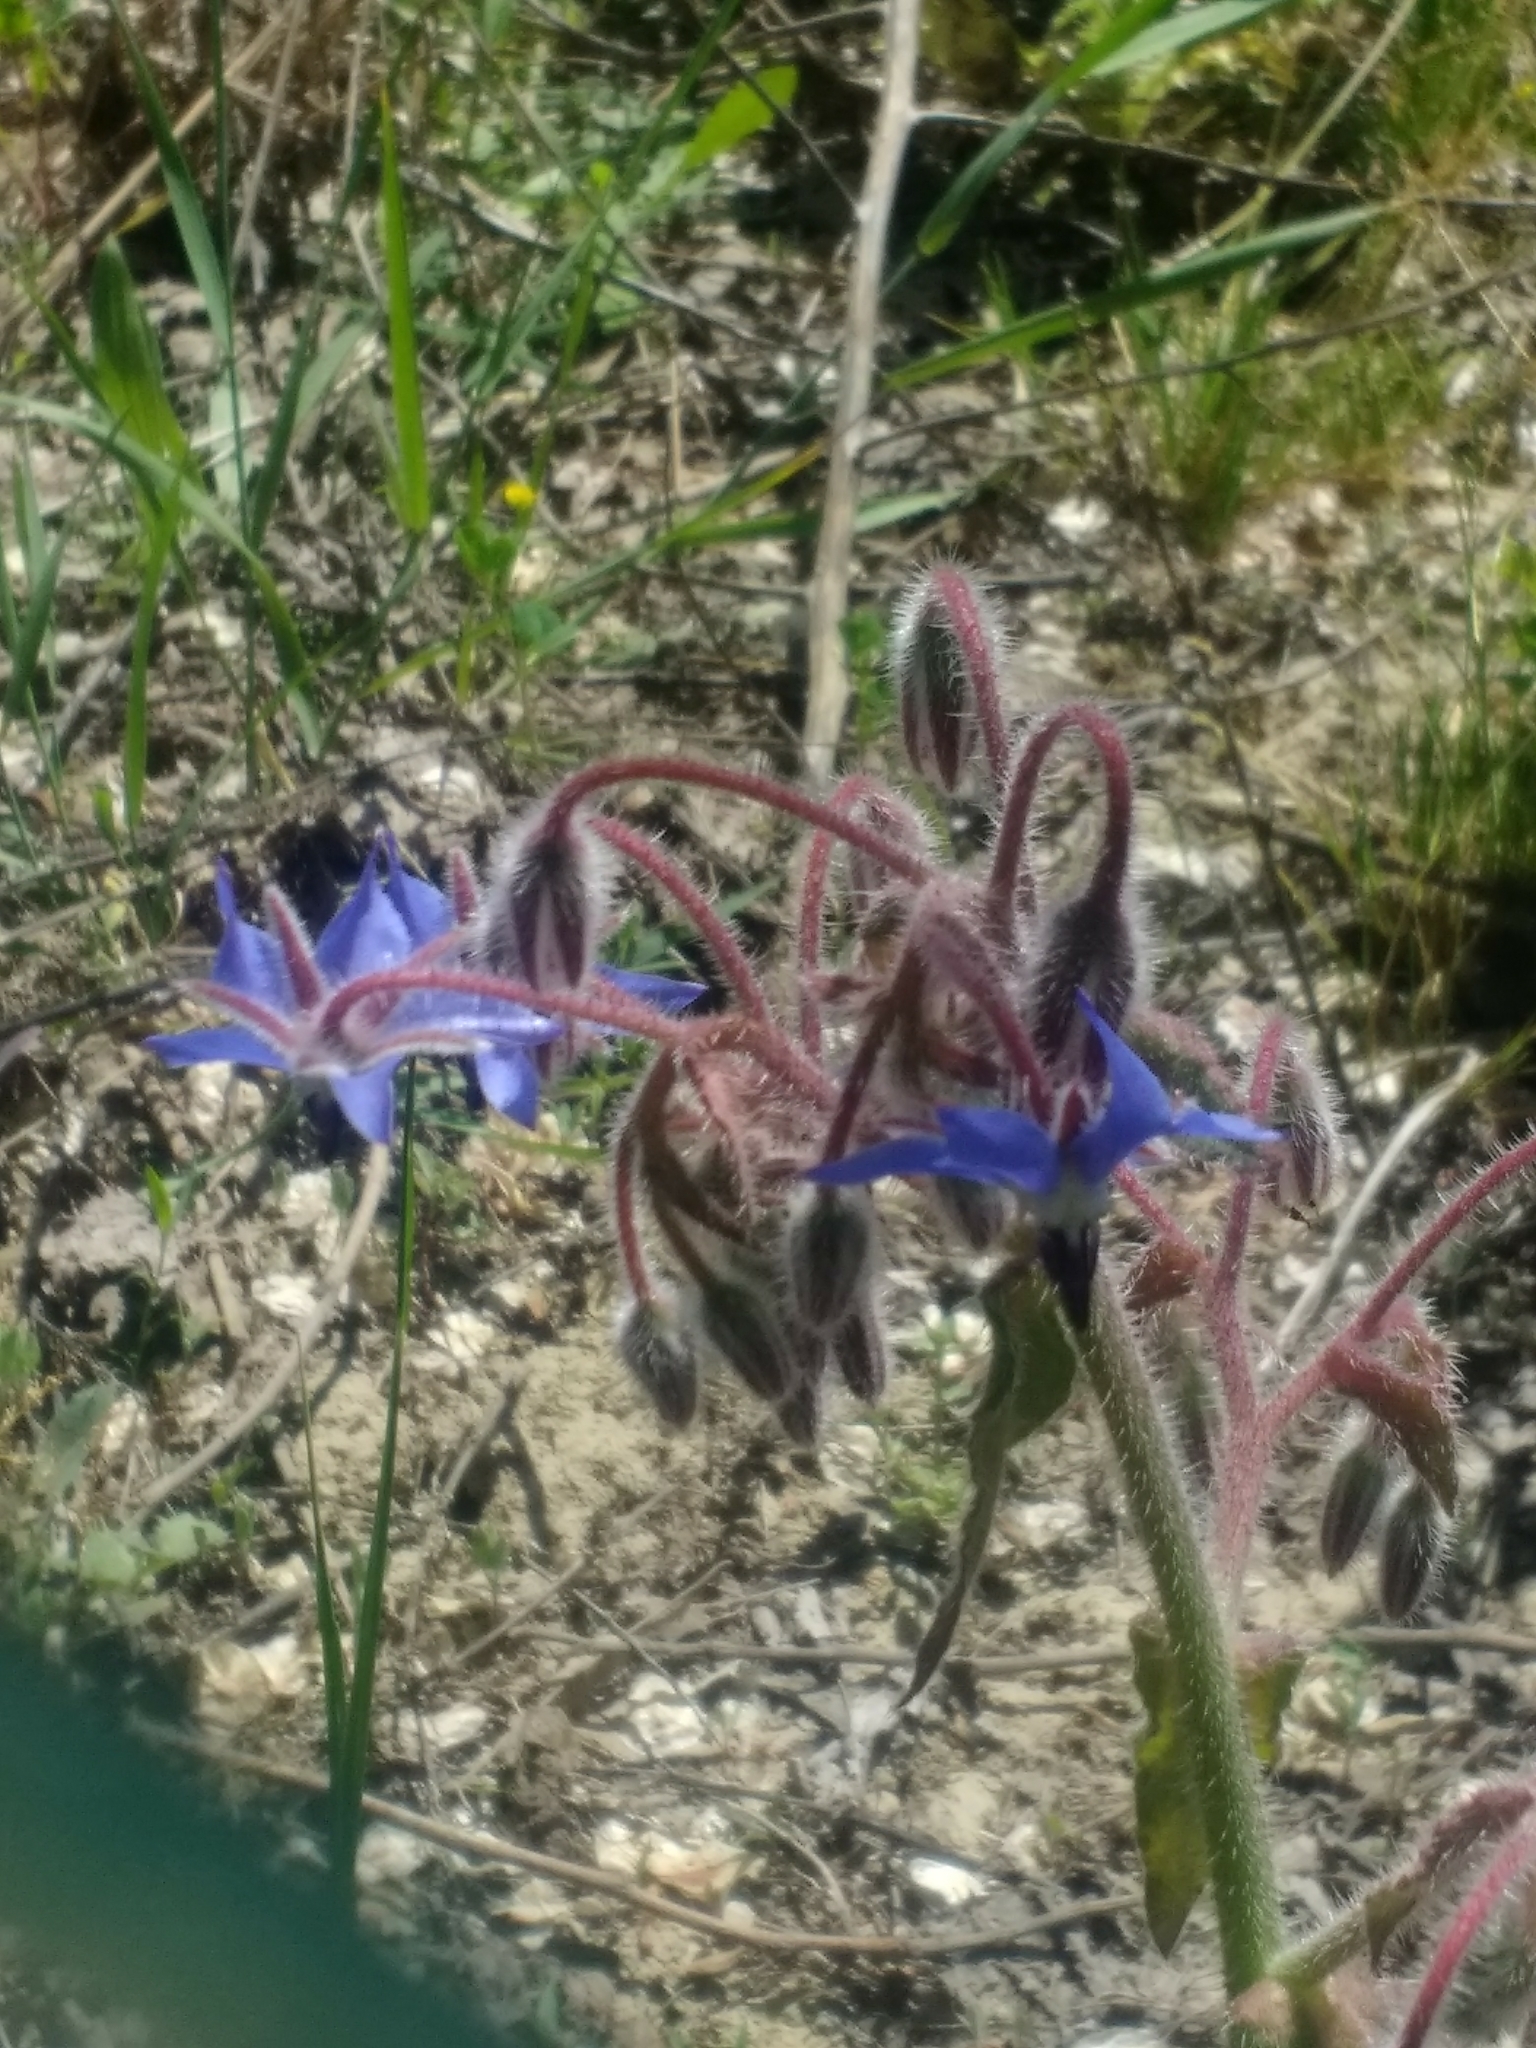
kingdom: Plantae
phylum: Tracheophyta
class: Magnoliopsida
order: Boraginales
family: Boraginaceae
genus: Borago
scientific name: Borago officinalis
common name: Borage
